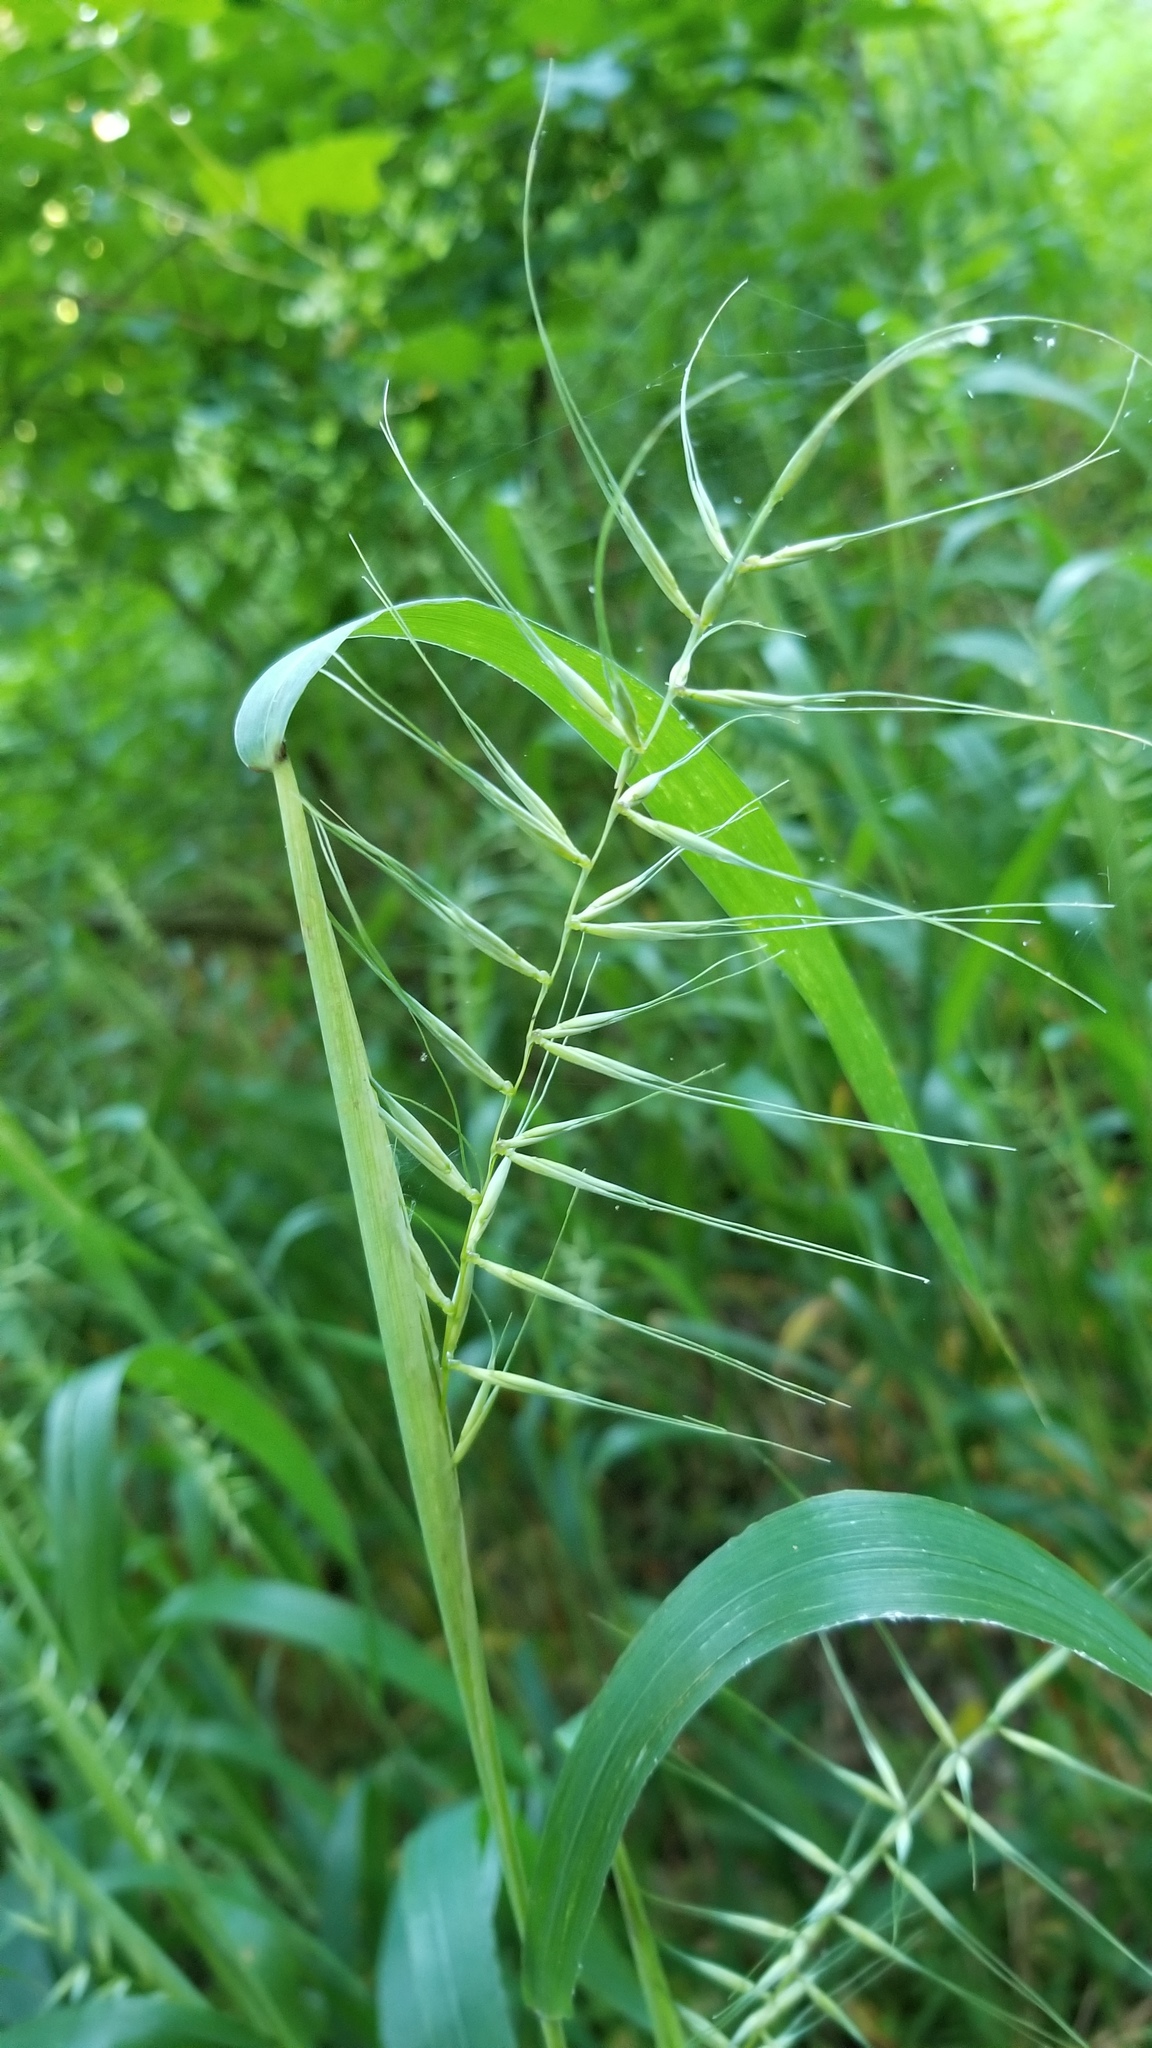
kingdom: Plantae
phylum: Tracheophyta
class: Liliopsida
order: Poales
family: Poaceae
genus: Elymus
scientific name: Elymus hystrix
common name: Bottlebrush grass
